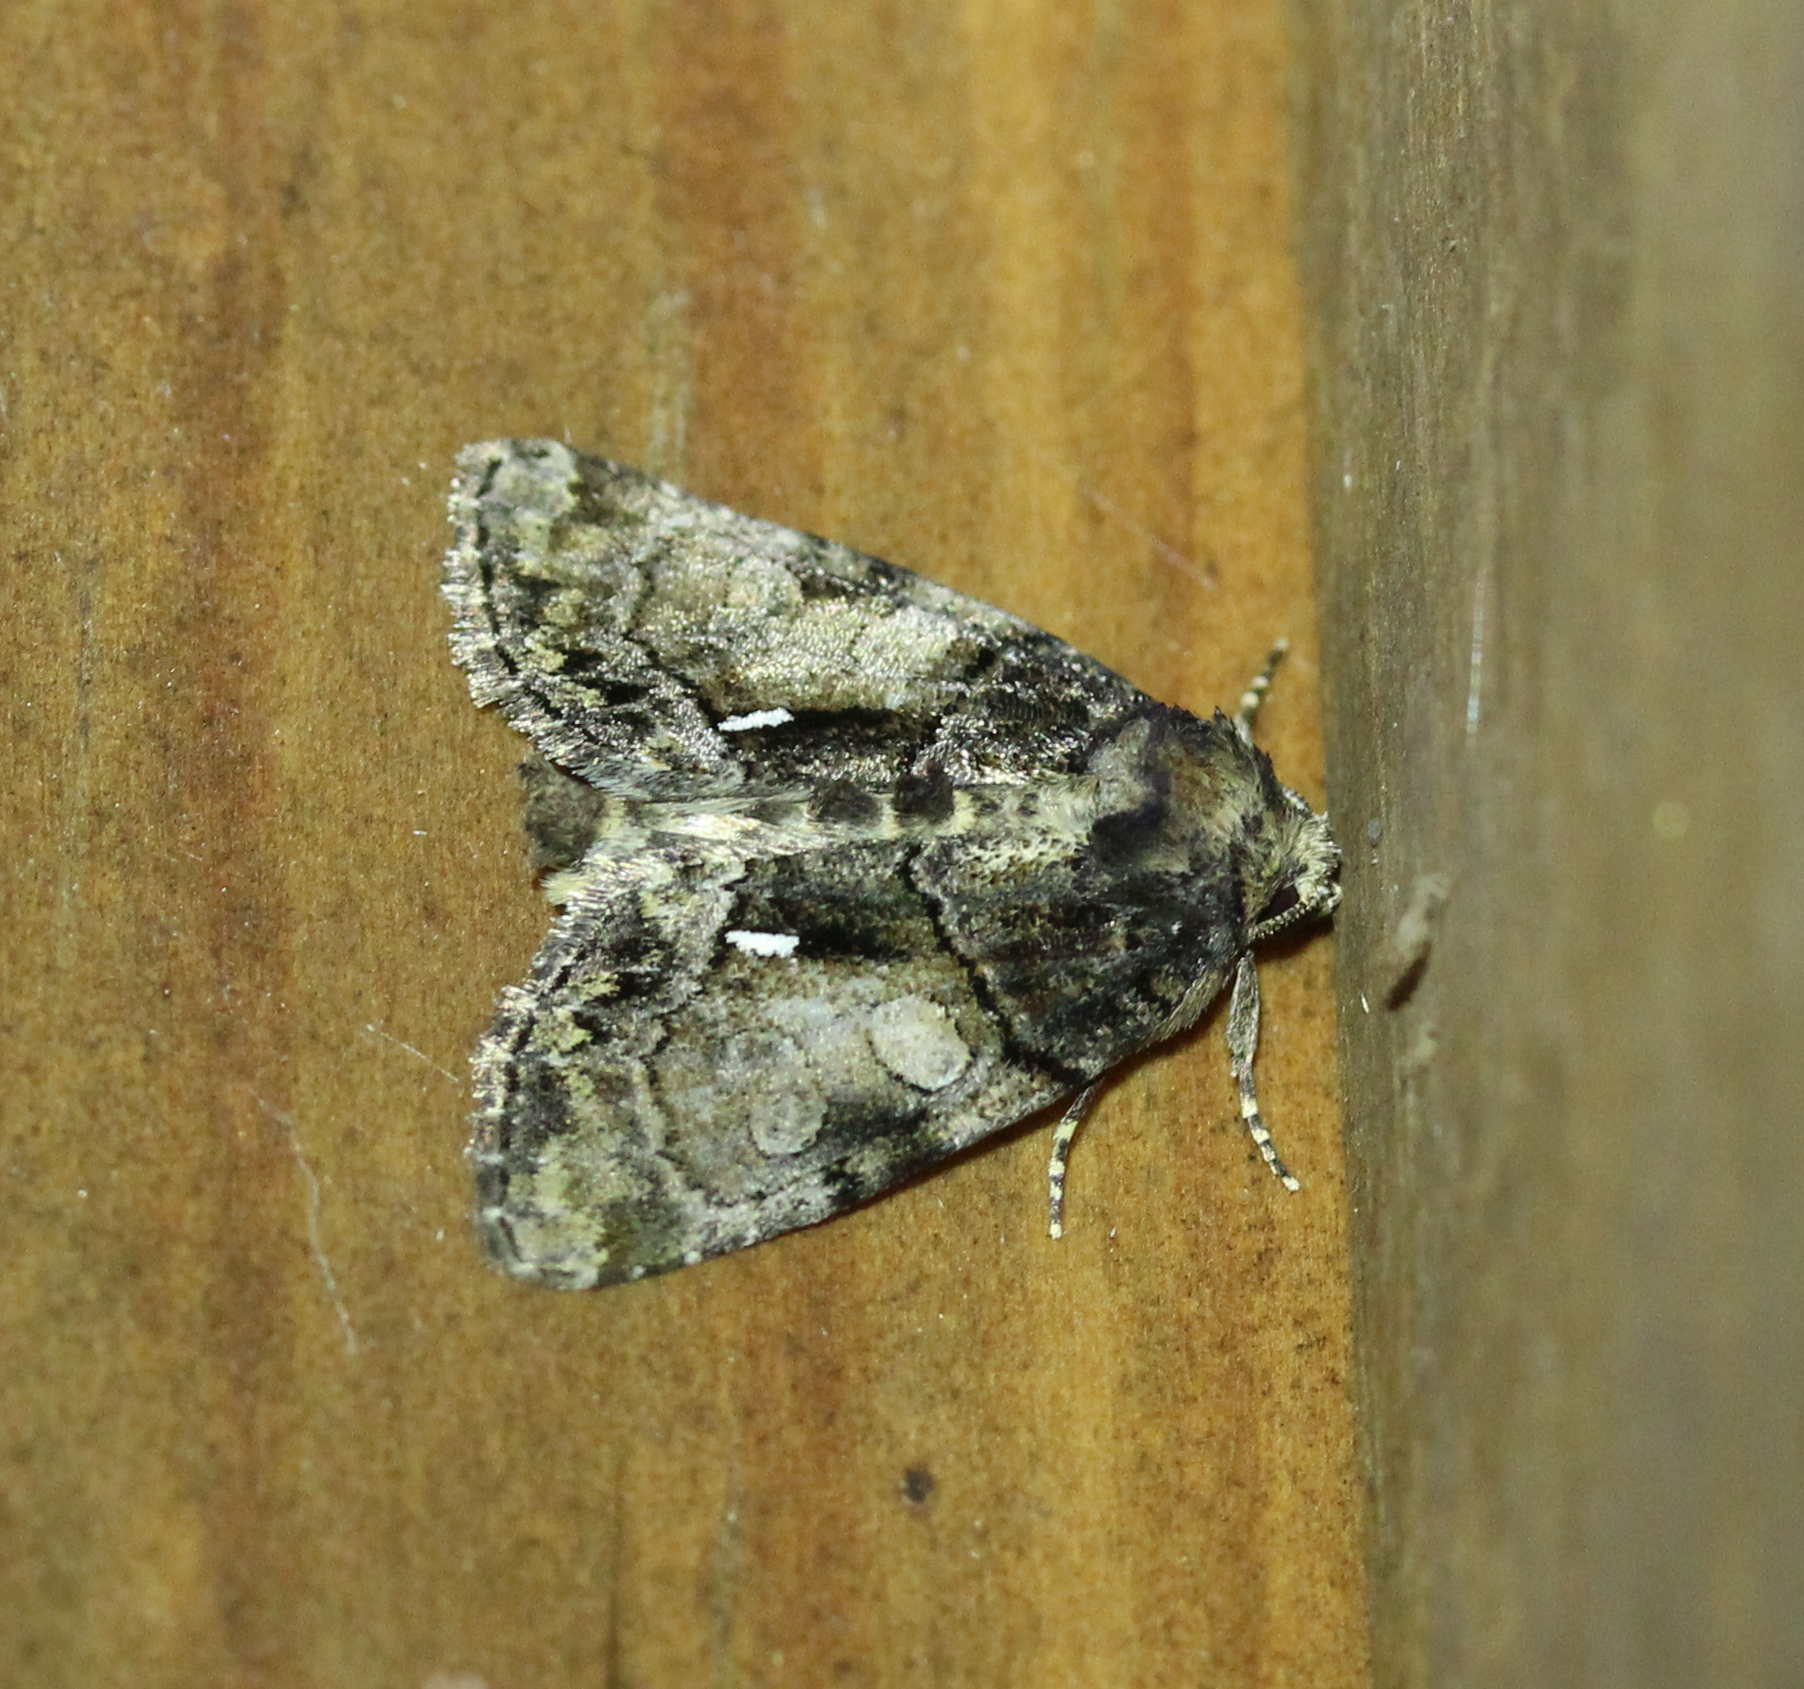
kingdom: Animalia
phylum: Arthropoda
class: Insecta
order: Lepidoptera
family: Noctuidae
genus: Chytonix
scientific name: Chytonix palliatricula
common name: Cloaked marvel
